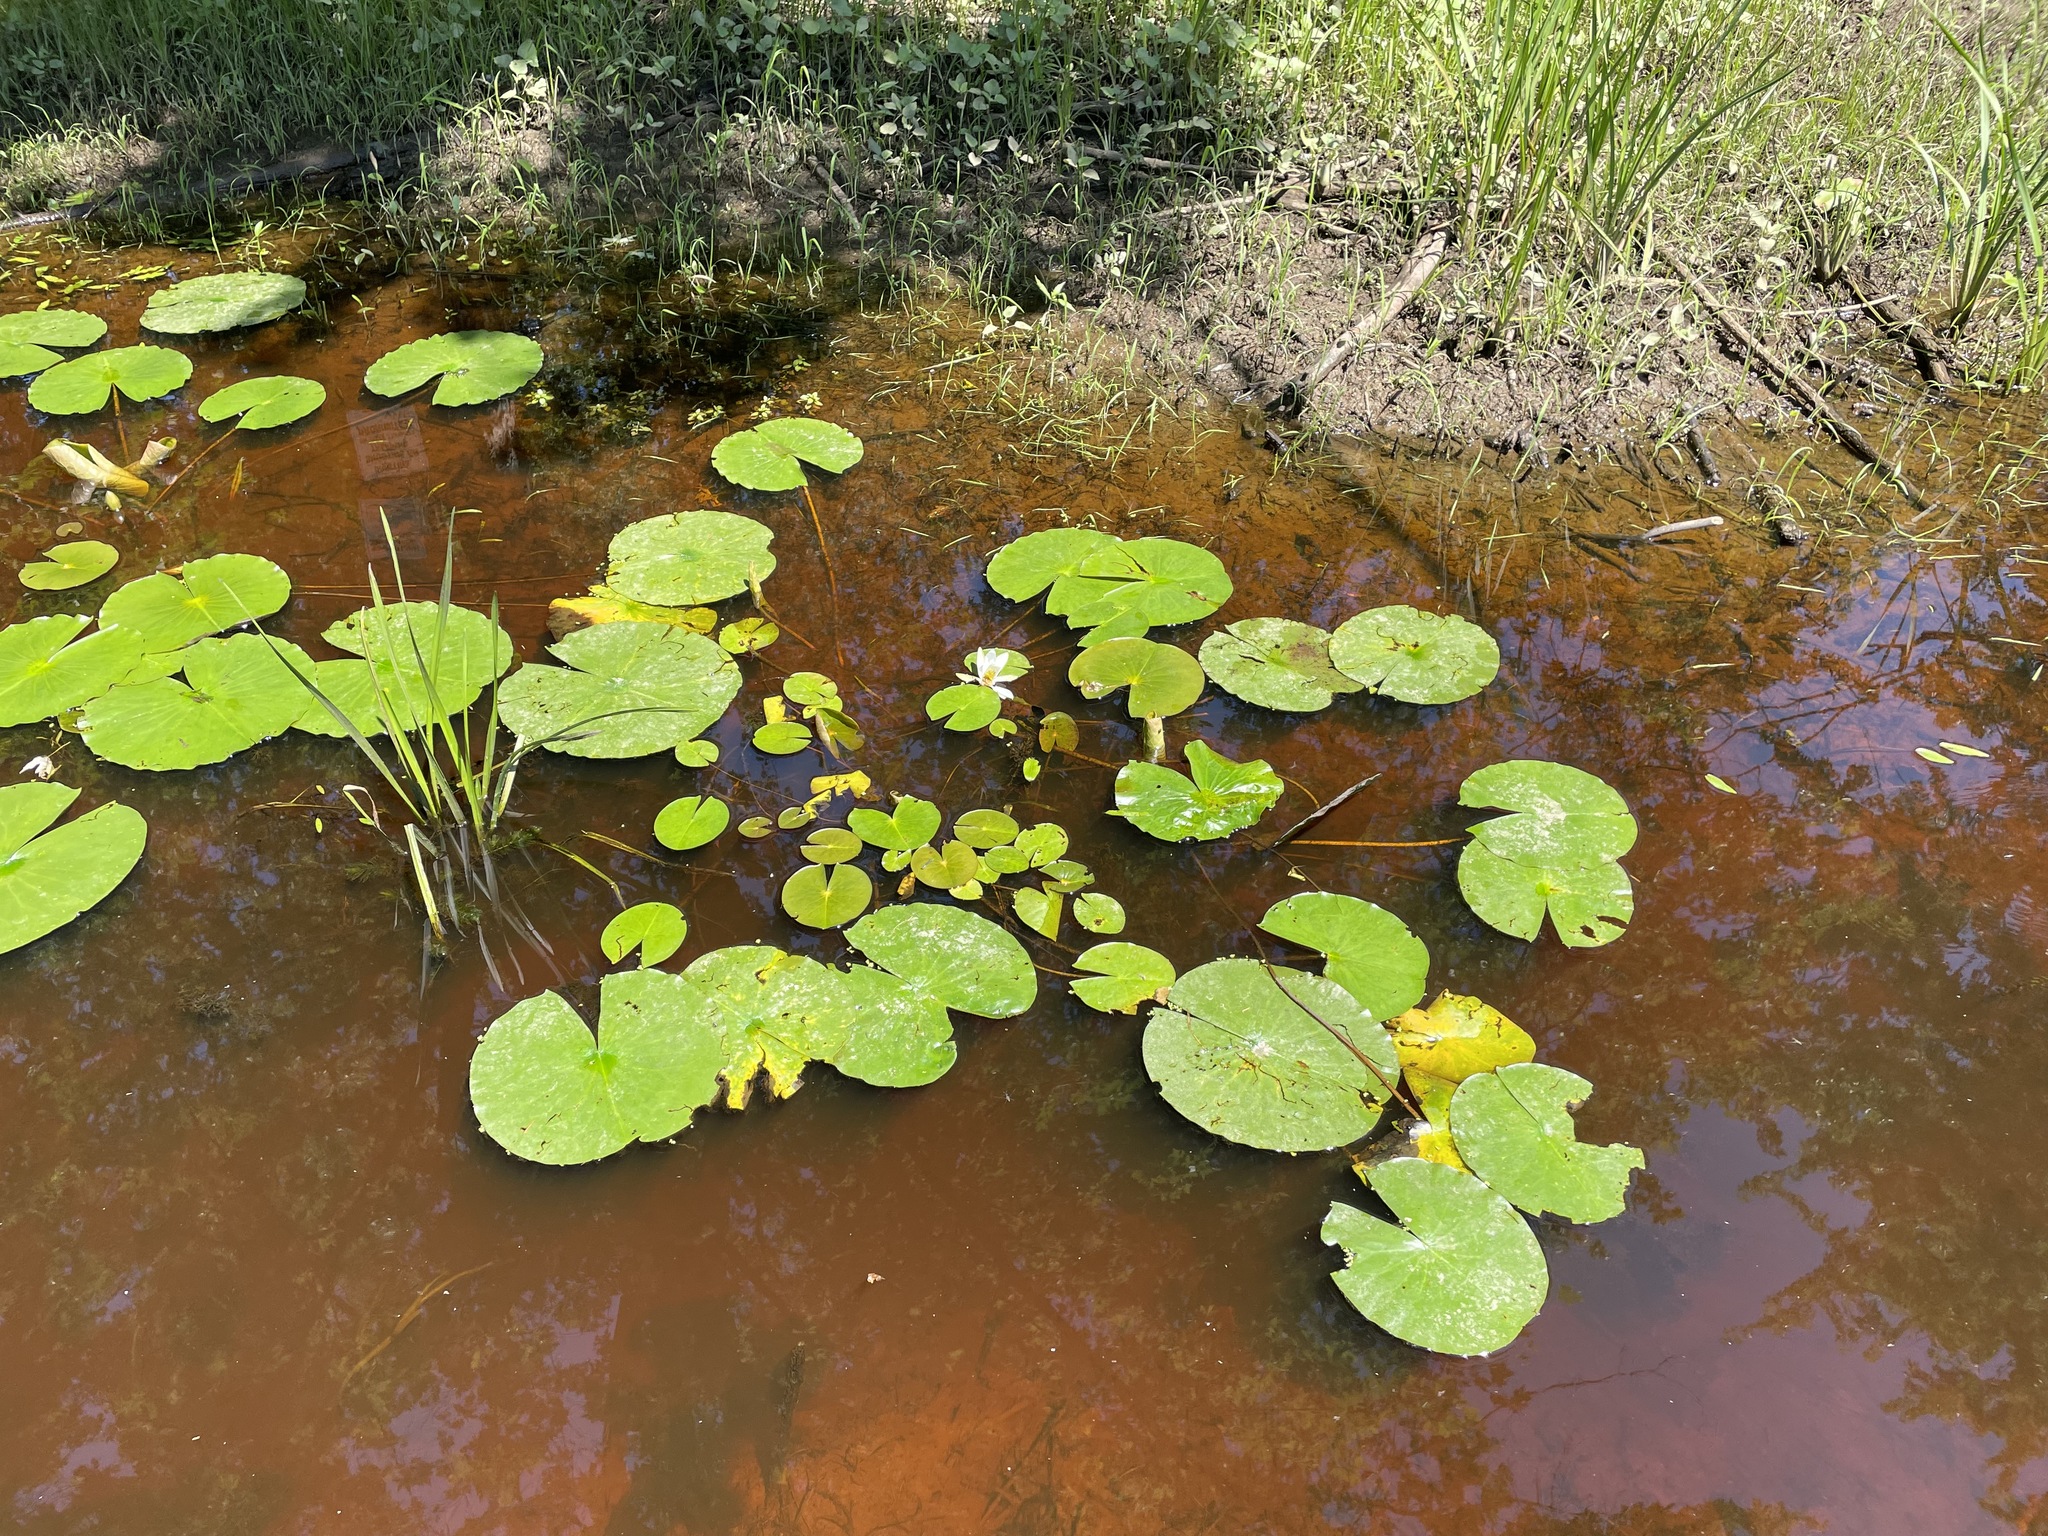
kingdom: Plantae
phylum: Tracheophyta
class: Magnoliopsida
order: Nymphaeales
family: Nymphaeaceae
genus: Nymphaea
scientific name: Nymphaea odorata
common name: Fragrant water-lily
